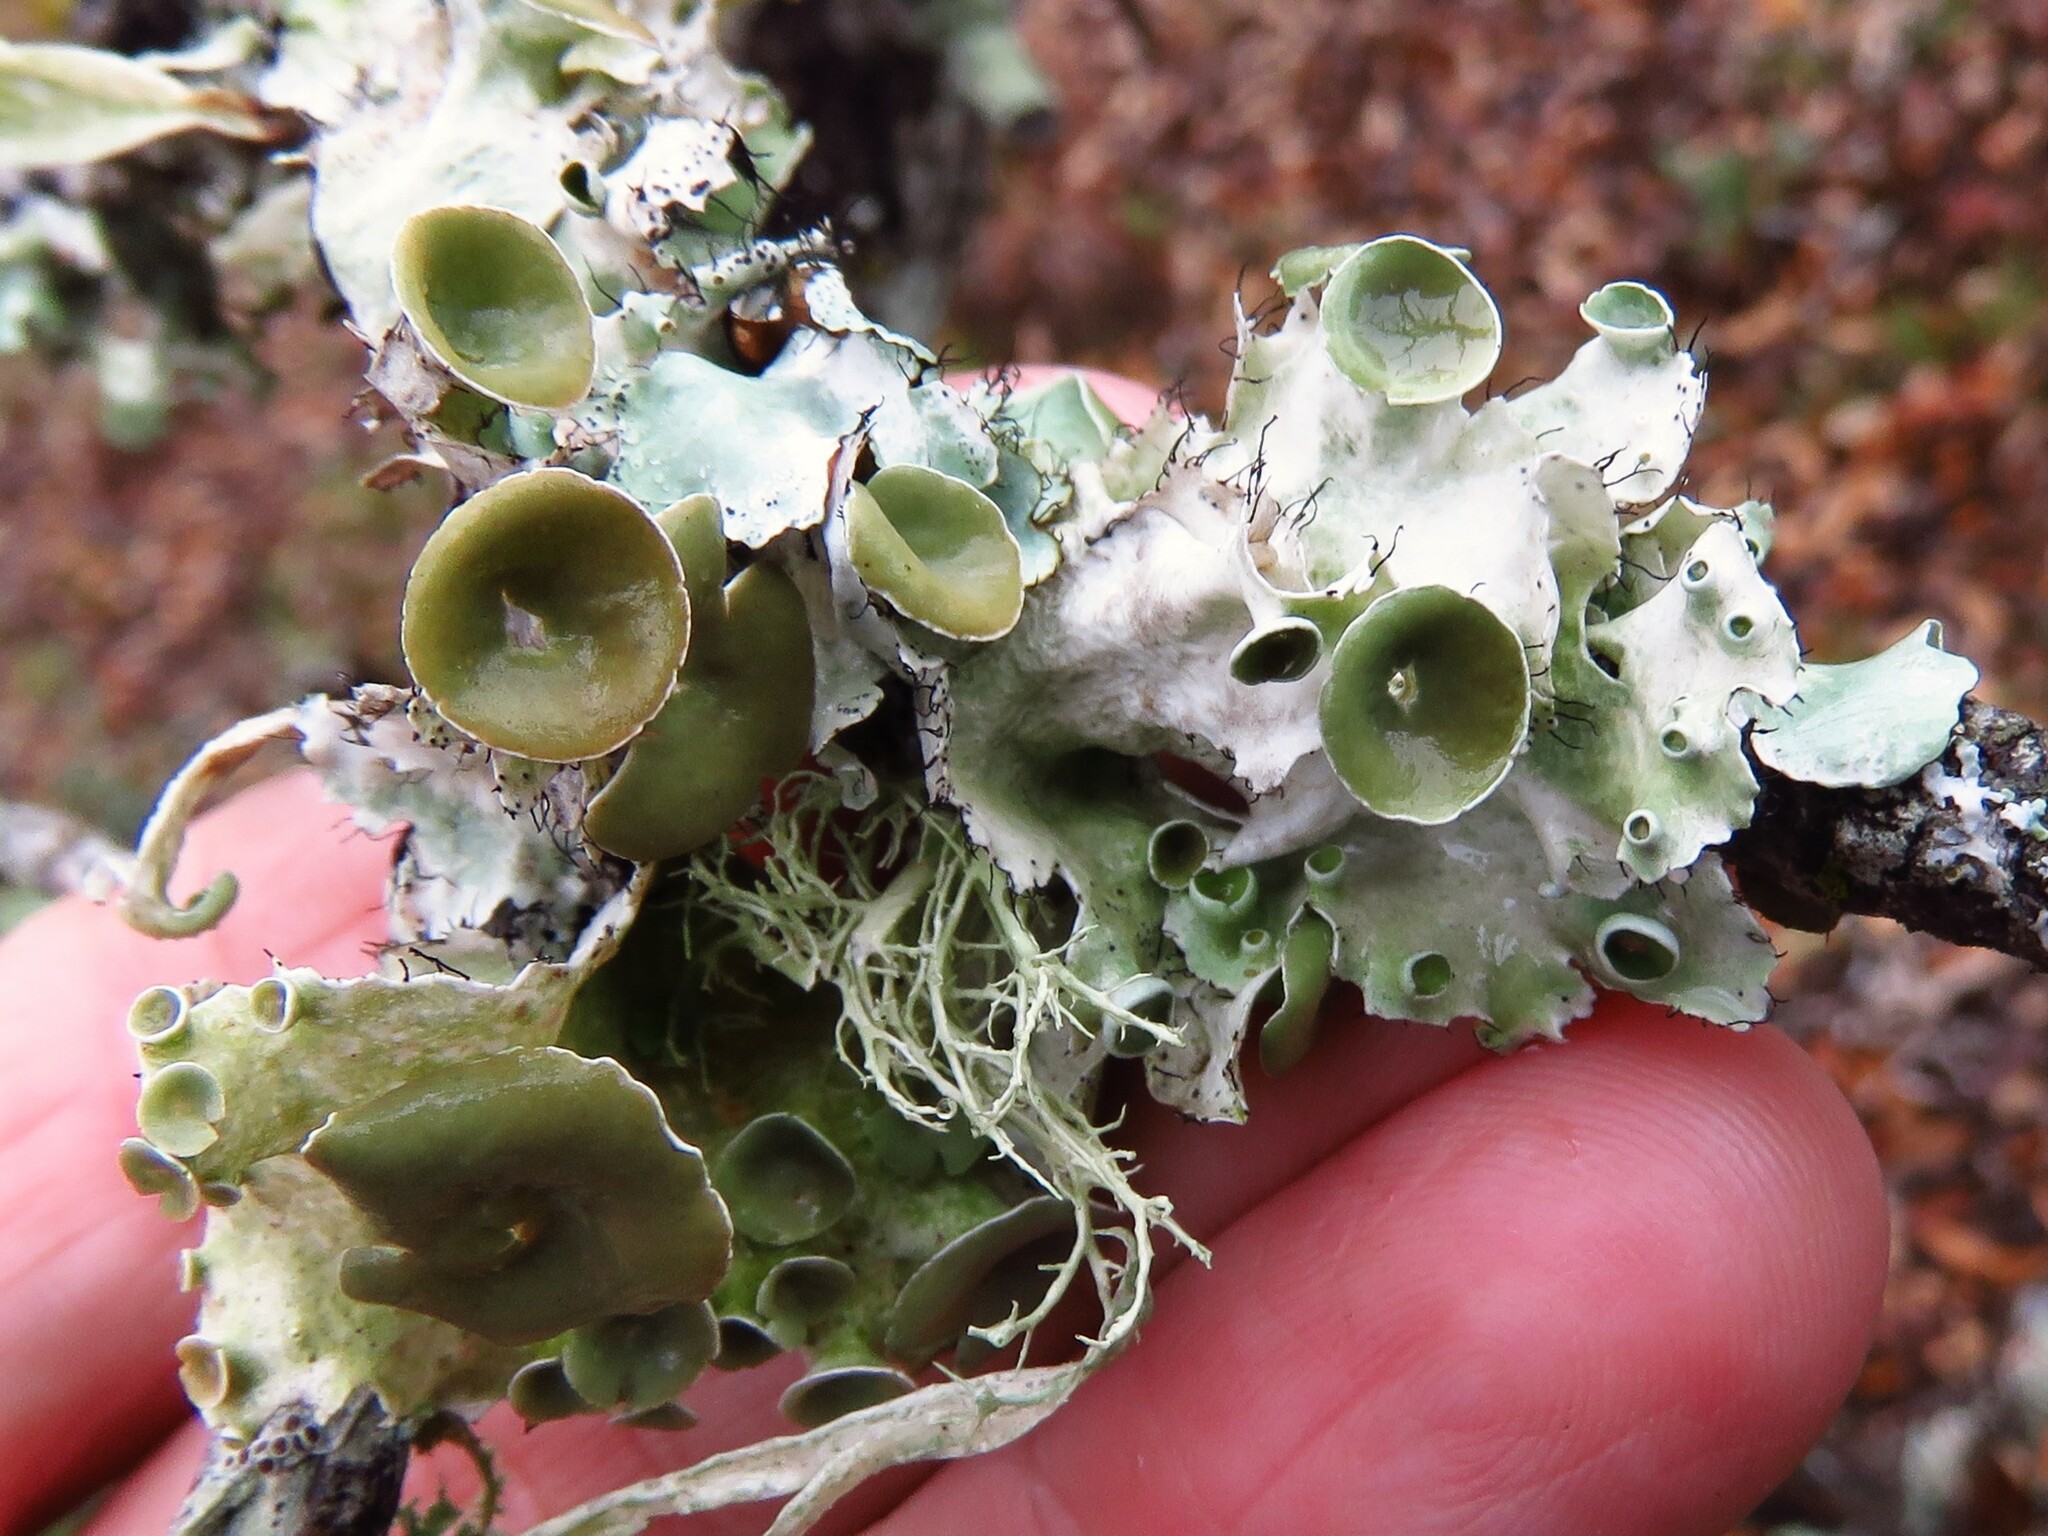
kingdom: Fungi
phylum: Ascomycota
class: Lecanoromycetes
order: Lecanorales
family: Parmeliaceae
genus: Parmotrema
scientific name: Parmotrema perforatum
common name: Perforated ruffle lichen
